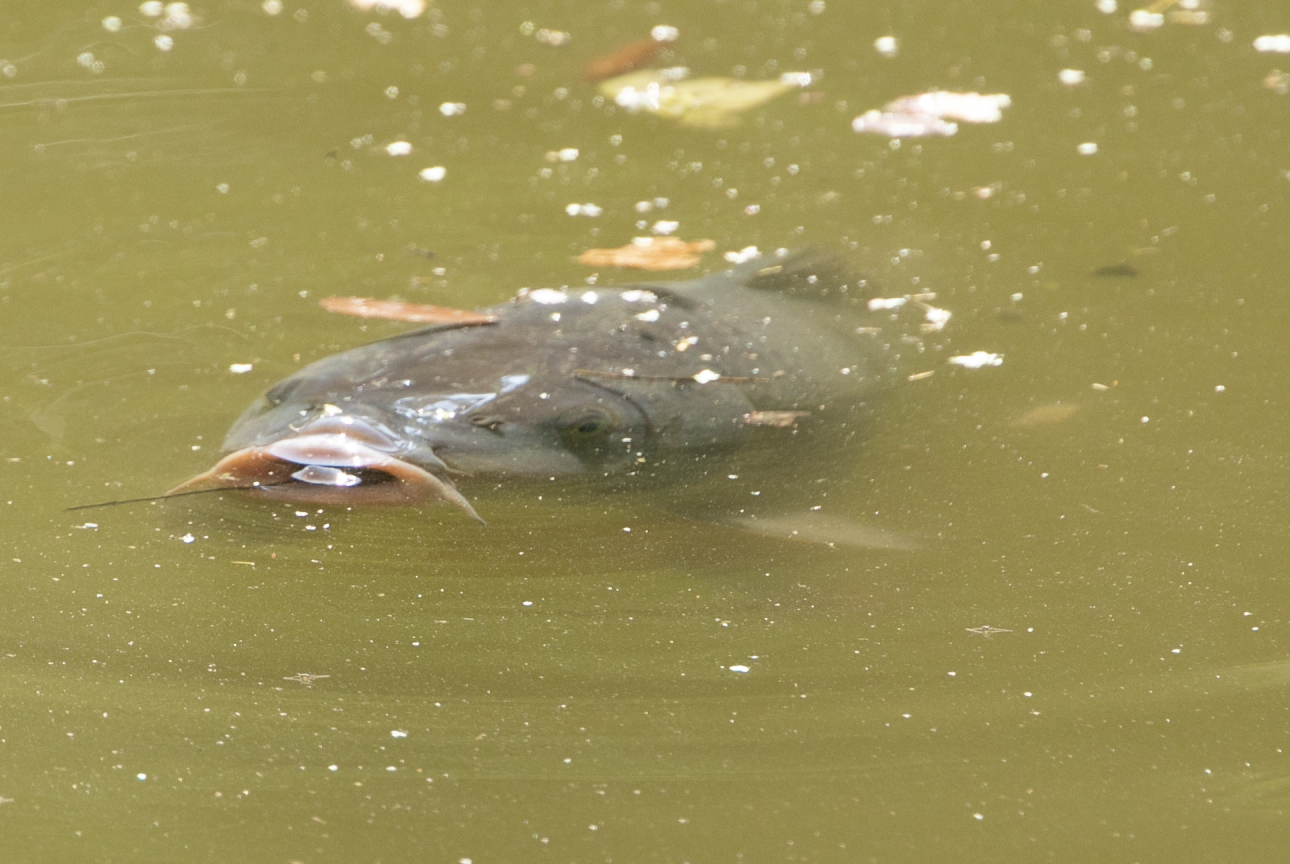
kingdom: Animalia
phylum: Chordata
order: Cypriniformes
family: Cyprinidae
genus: Cyprinus
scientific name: Cyprinus carpio
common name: Common carp
